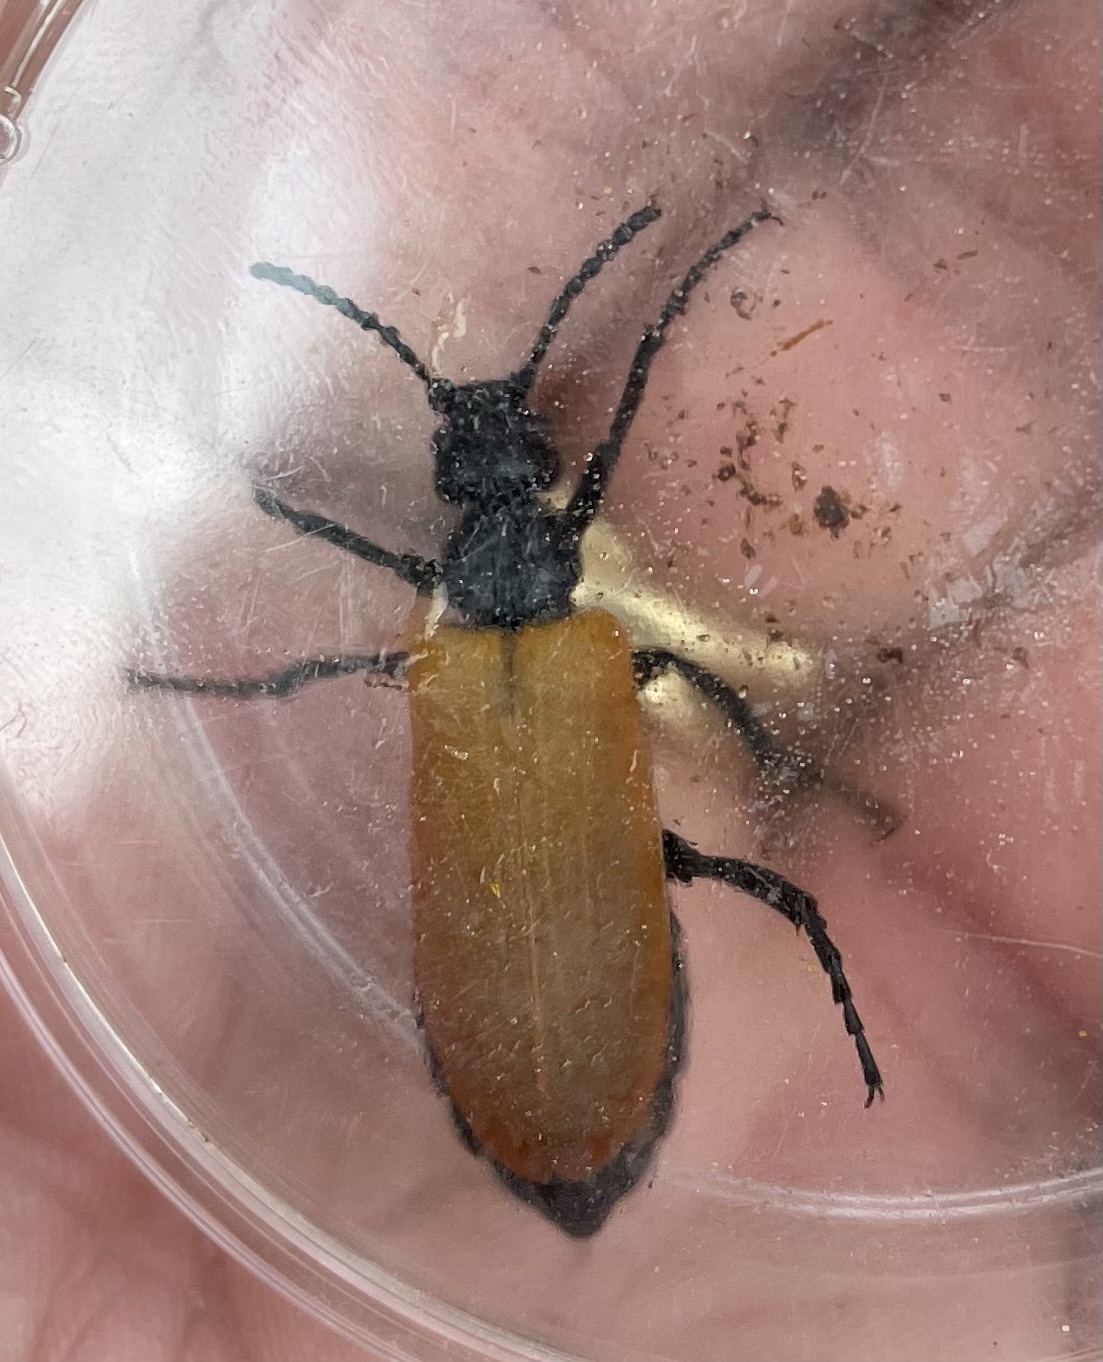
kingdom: Animalia
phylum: Arthropoda
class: Insecta
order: Coleoptera
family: Meloidae
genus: Lytta
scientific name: Lytta fulvipennis
